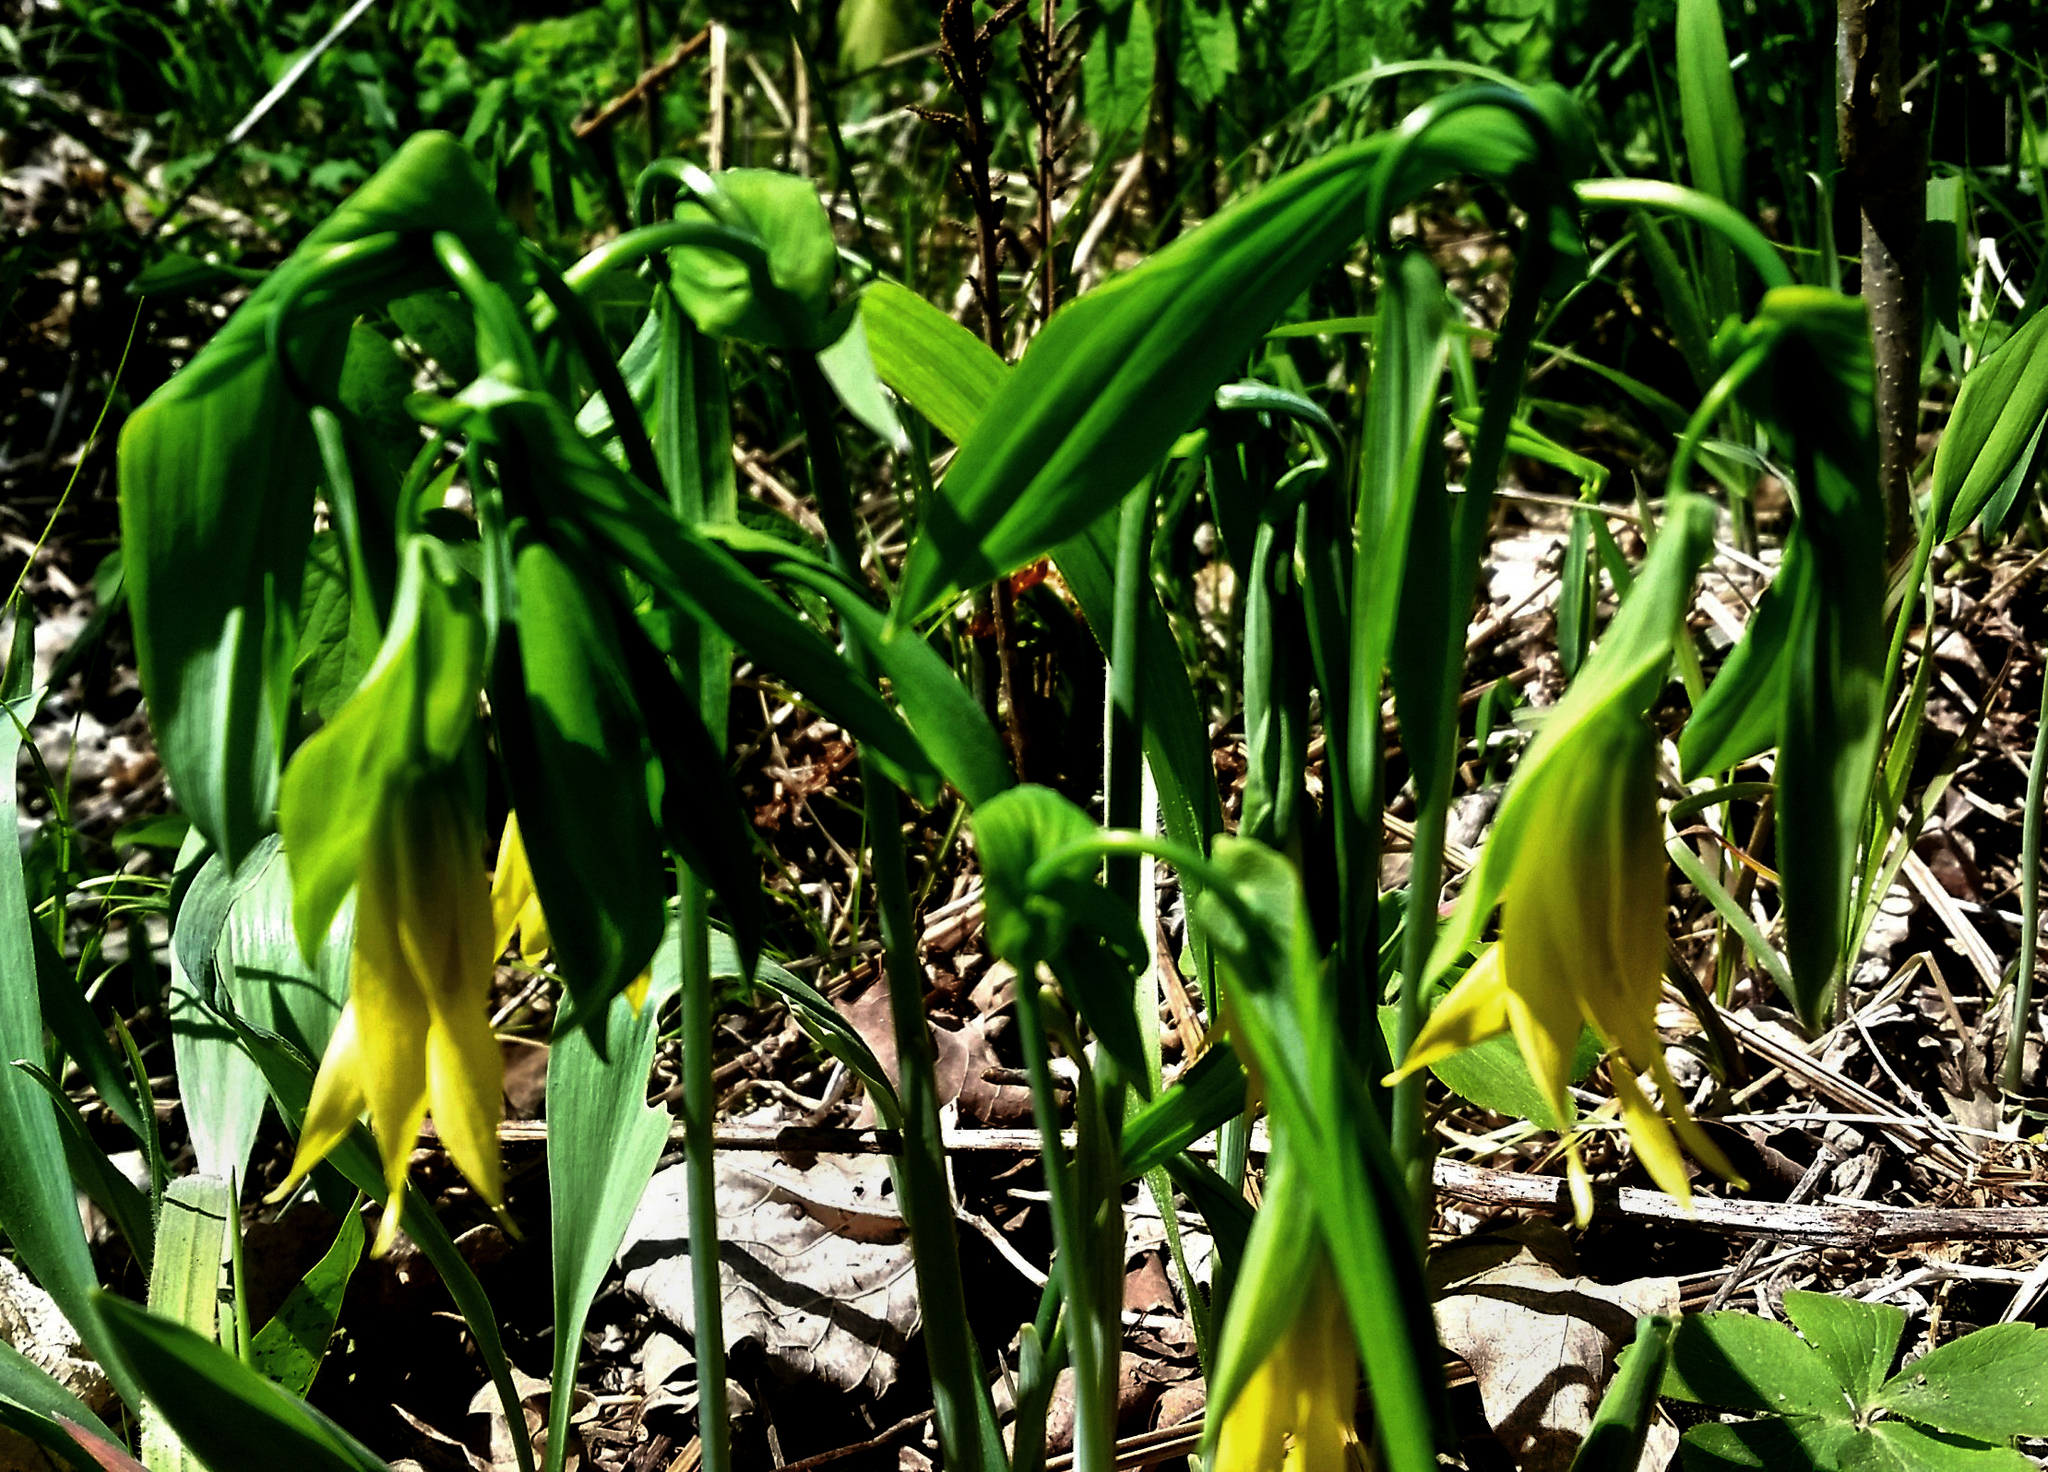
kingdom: Plantae
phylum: Tracheophyta
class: Liliopsida
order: Liliales
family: Colchicaceae
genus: Uvularia
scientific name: Uvularia grandiflora
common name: Bellwort
